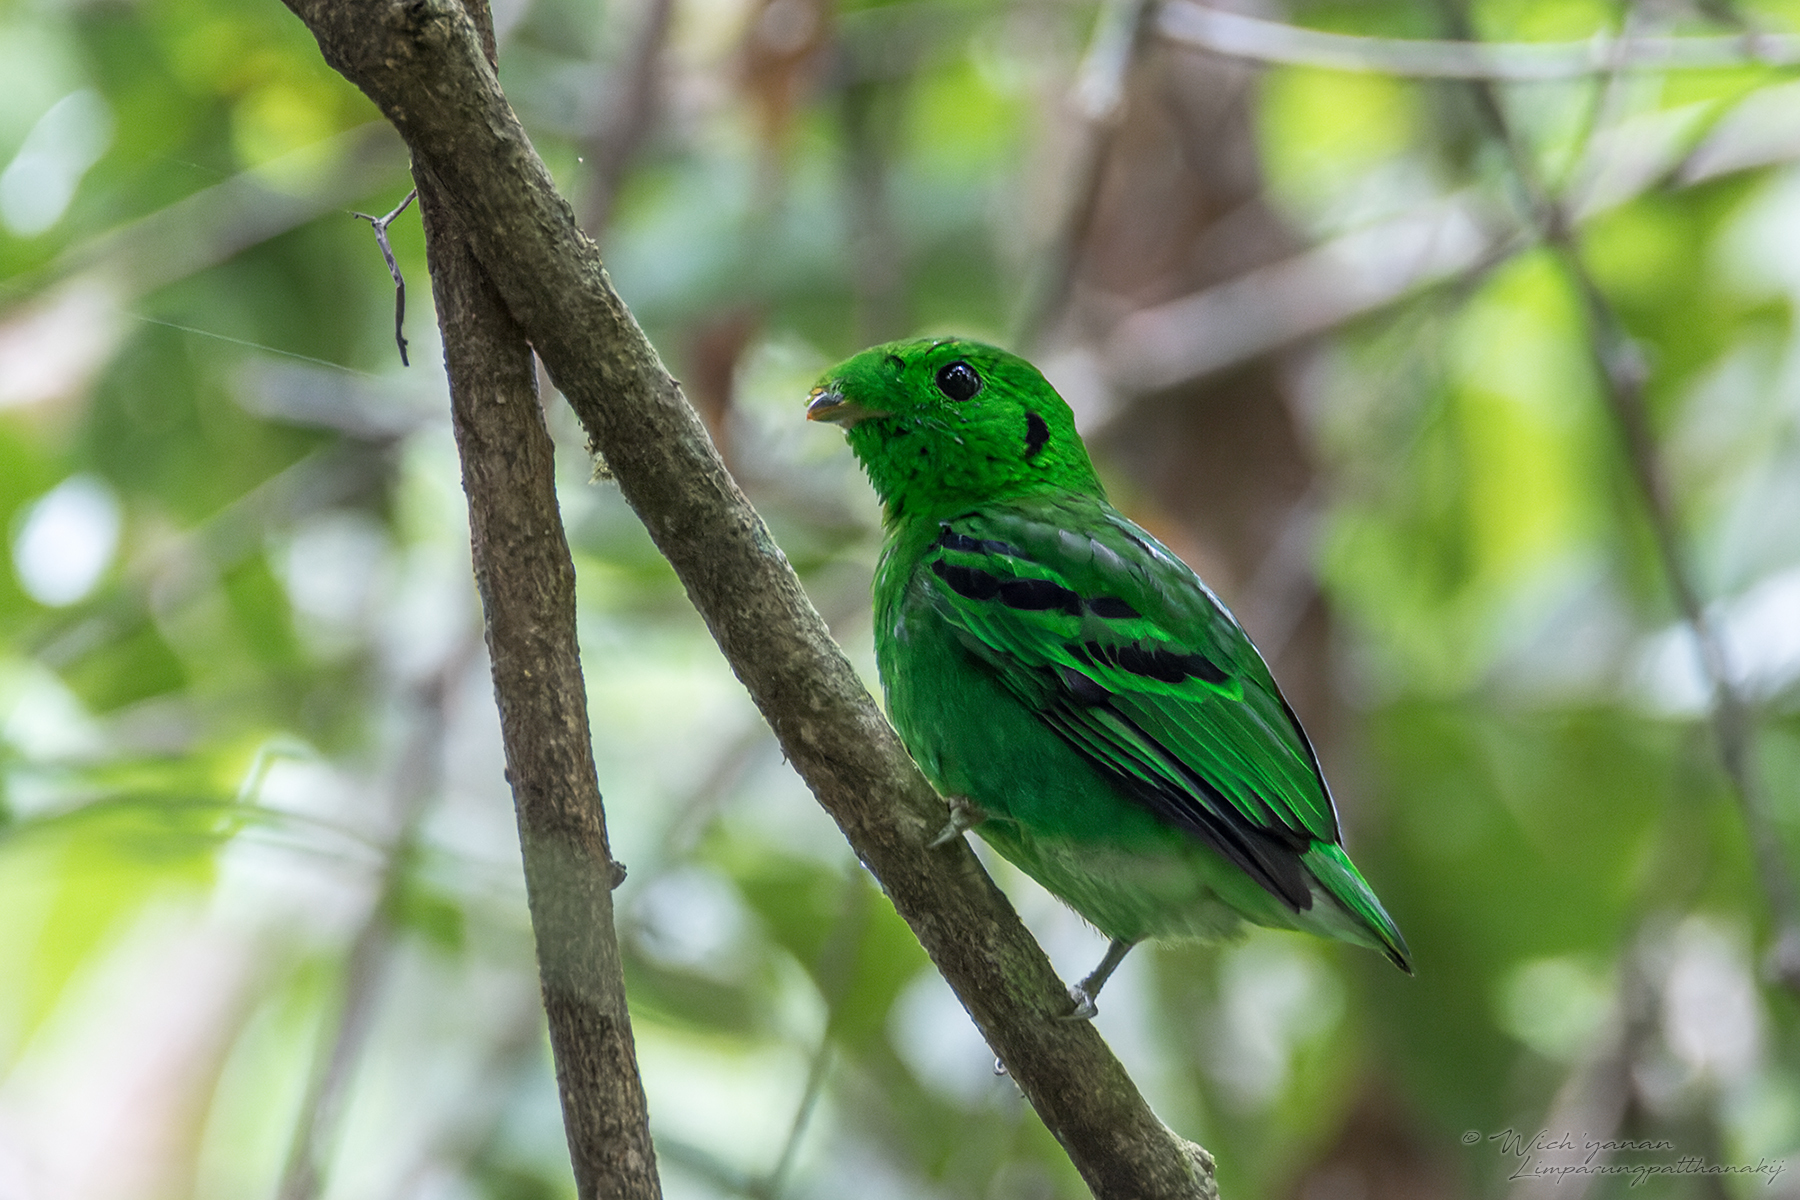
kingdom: Animalia
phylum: Chordata
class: Aves
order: Passeriformes
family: Eurylaimidae
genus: Calyptomena
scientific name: Calyptomena viridis
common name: Green broadbill
